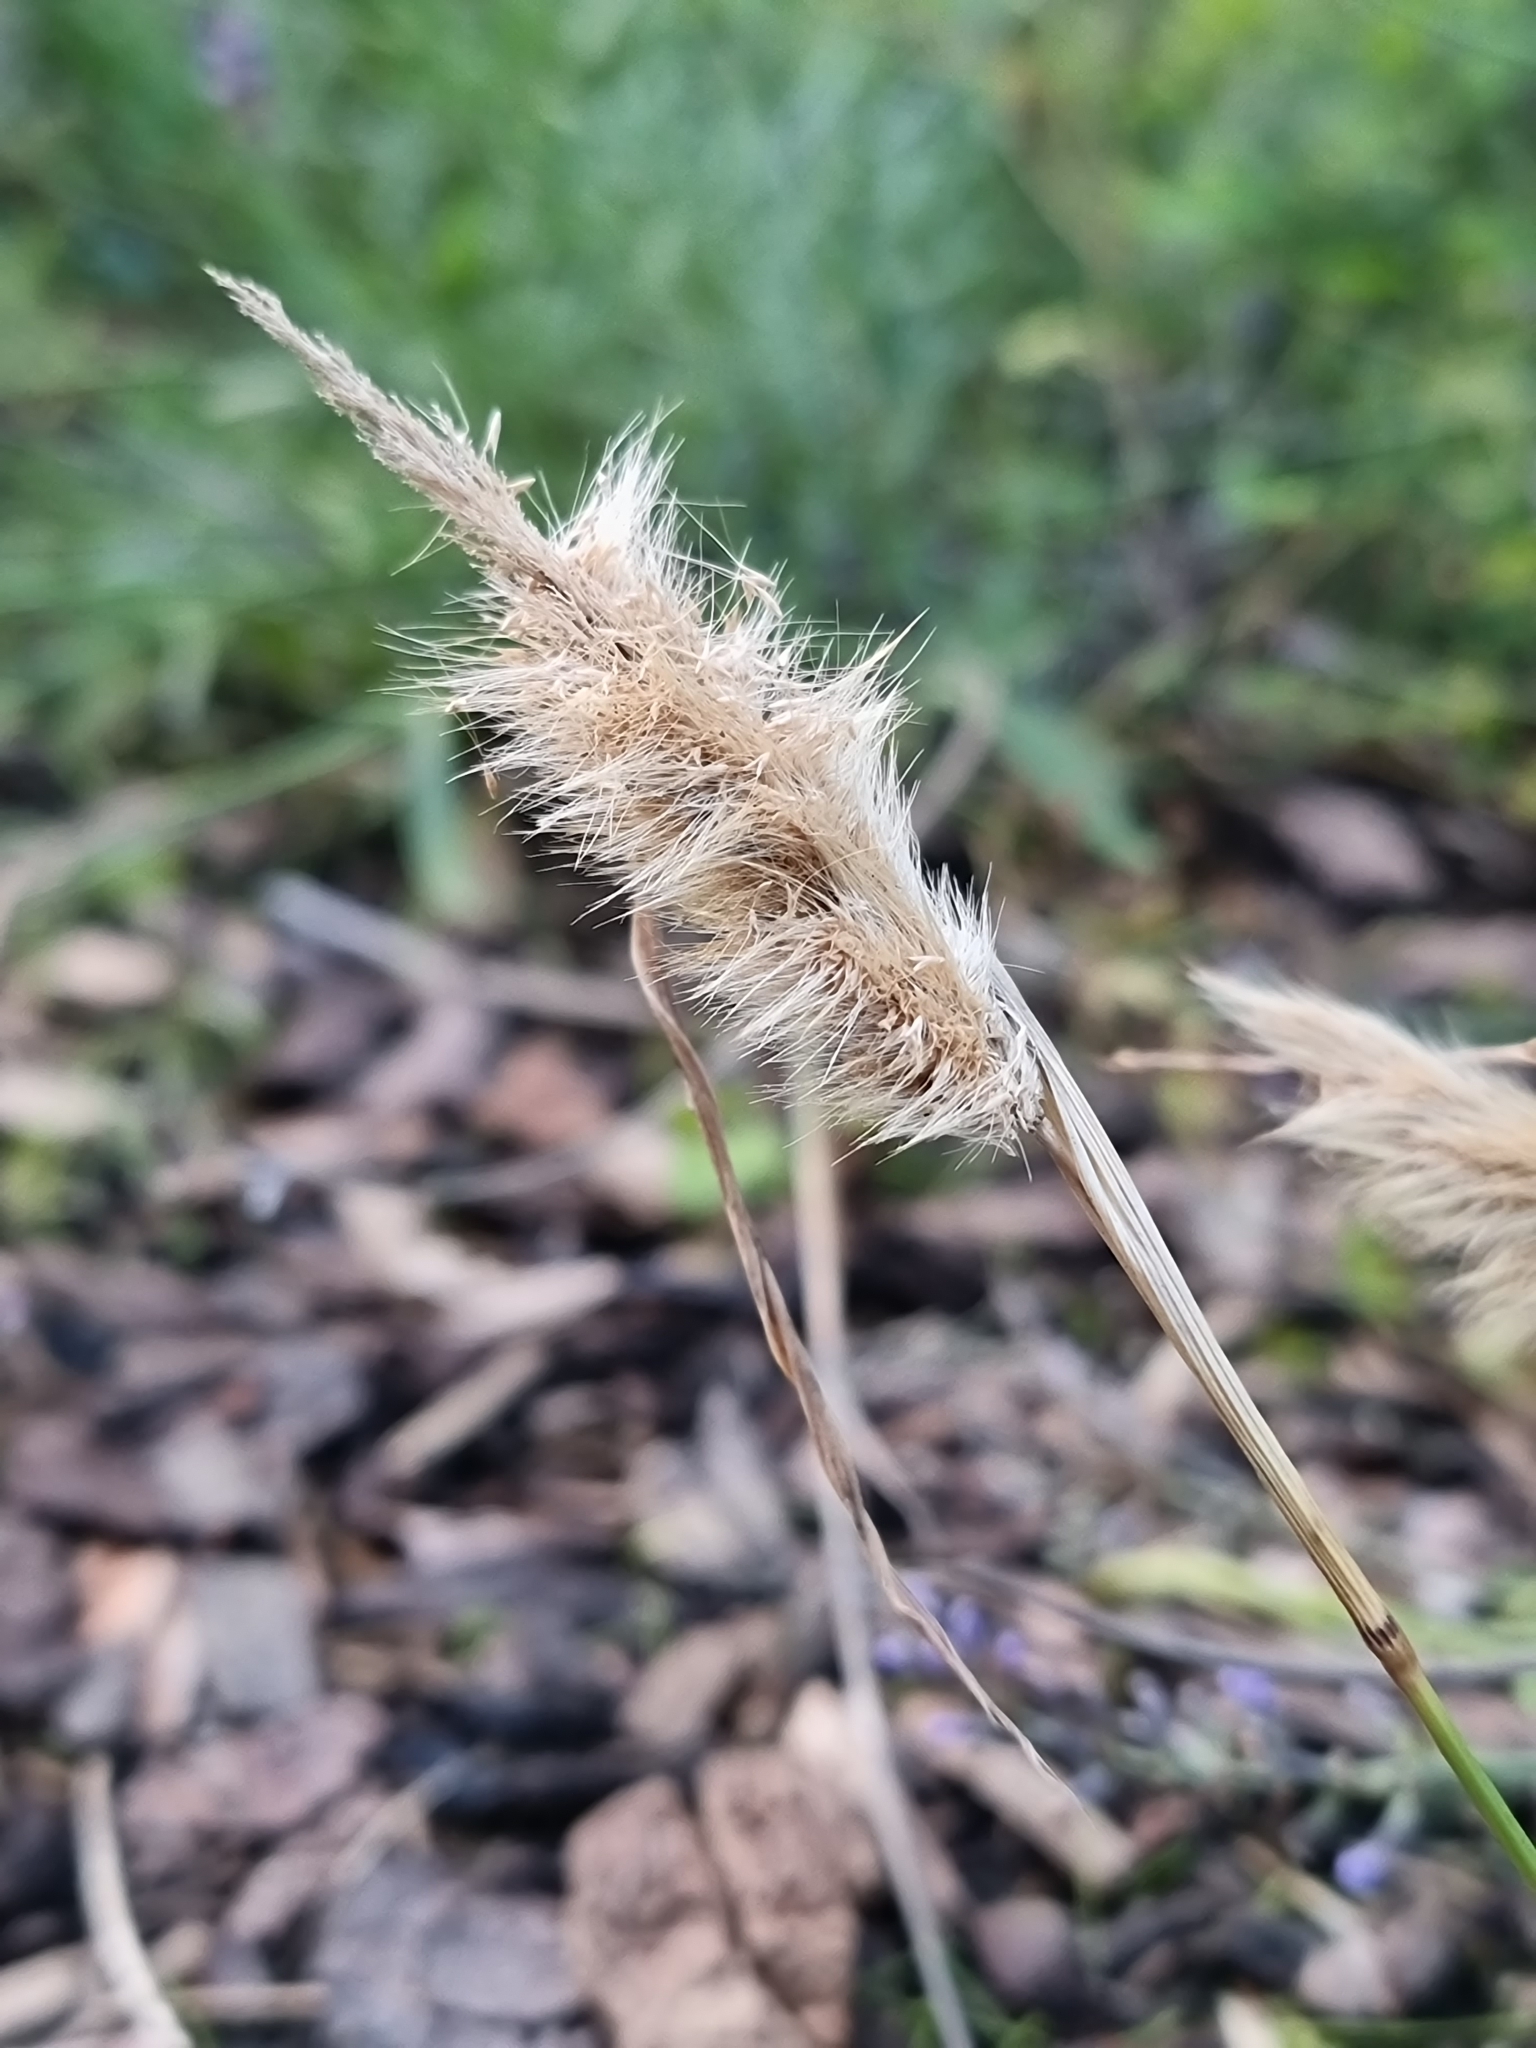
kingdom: Plantae
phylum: Tracheophyta
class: Liliopsida
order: Poales
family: Poaceae
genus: Polypogon
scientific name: Polypogon monspeliensis
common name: Annual rabbitsfoot grass
